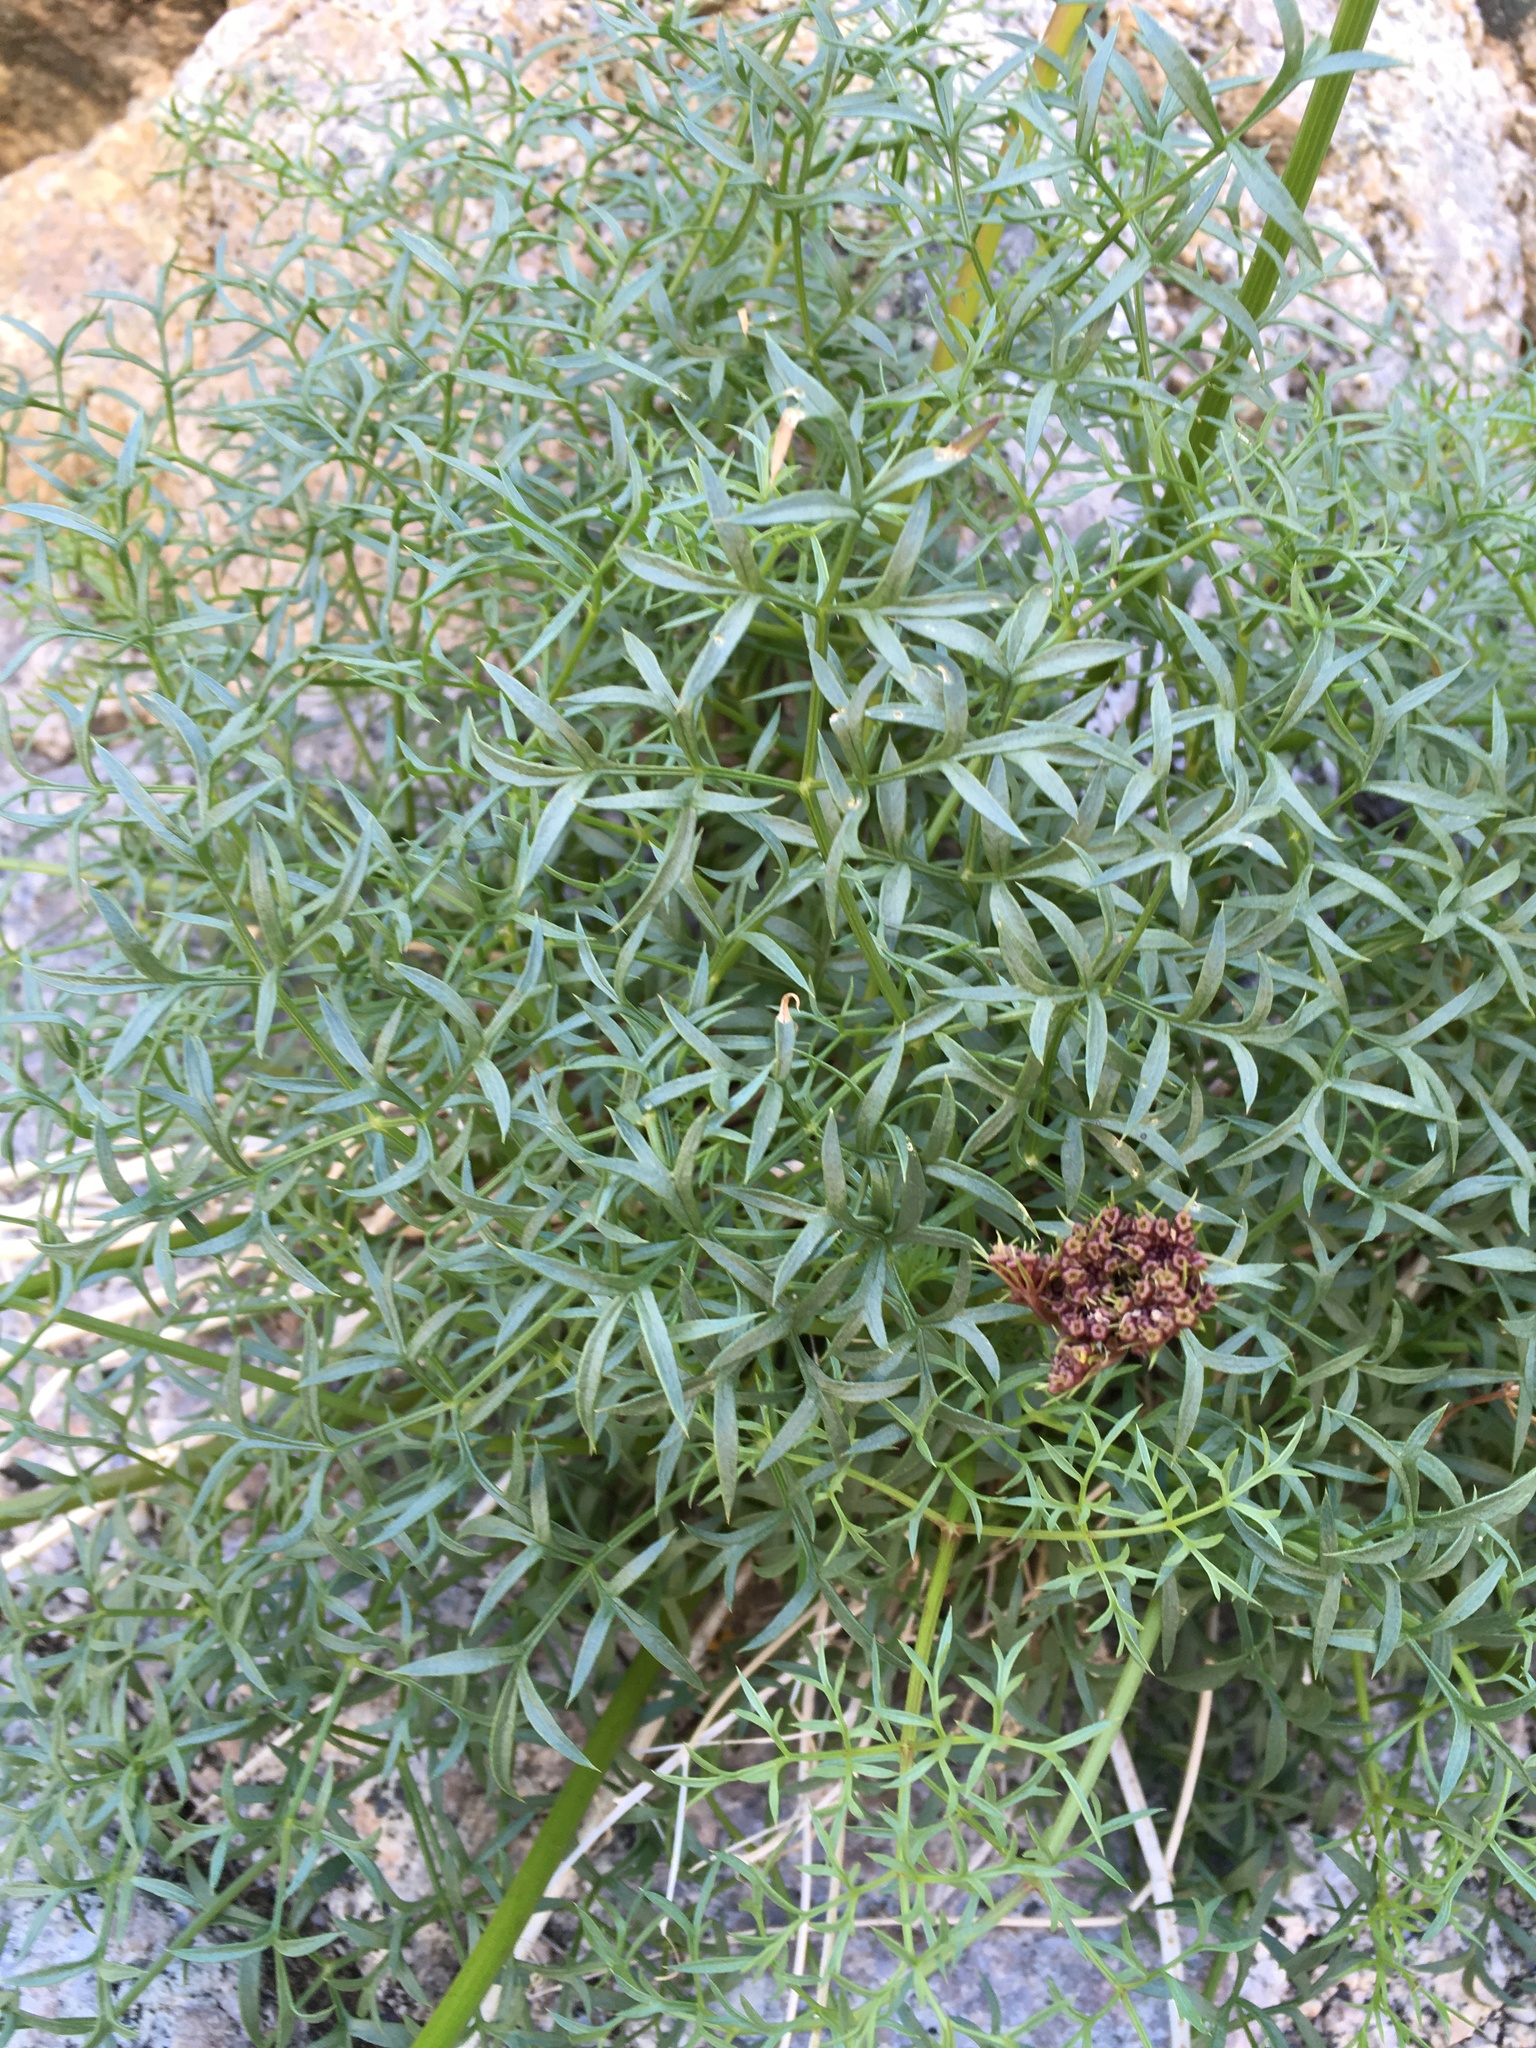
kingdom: Plantae
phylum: Tracheophyta
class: Magnoliopsida
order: Apiales
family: Apiaceae
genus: Aulospermum
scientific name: Aulospermum panamintense
